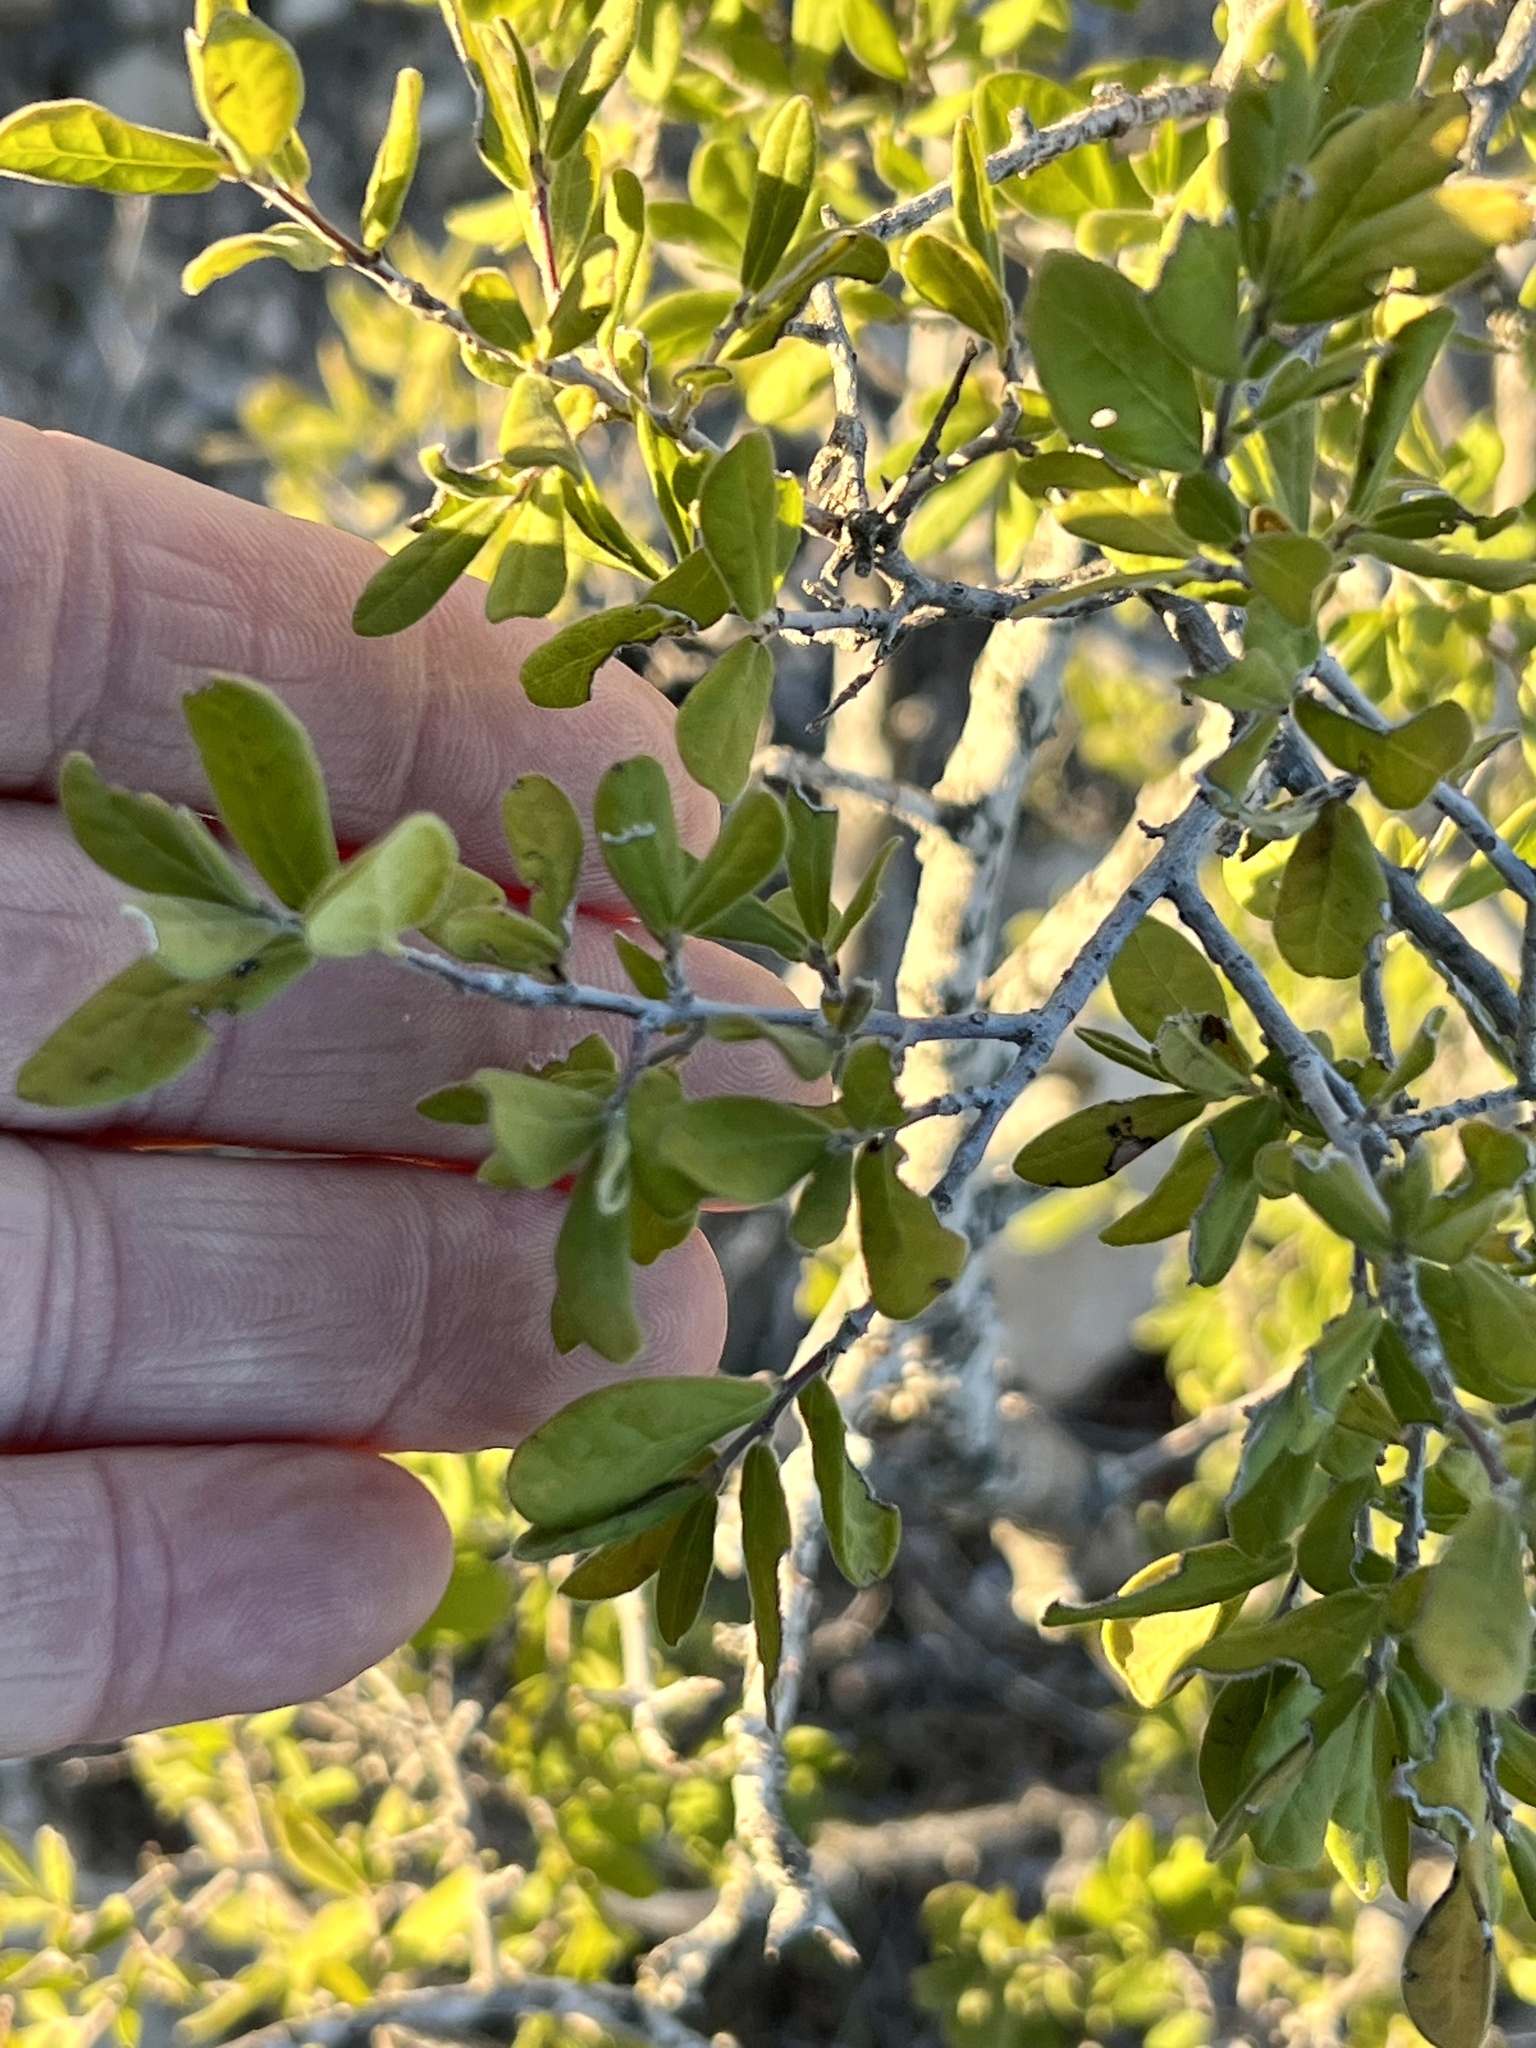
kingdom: Plantae
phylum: Tracheophyta
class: Magnoliopsida
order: Ericales
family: Ebenaceae
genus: Diospyros
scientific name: Diospyros texana
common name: Texas persimmon
